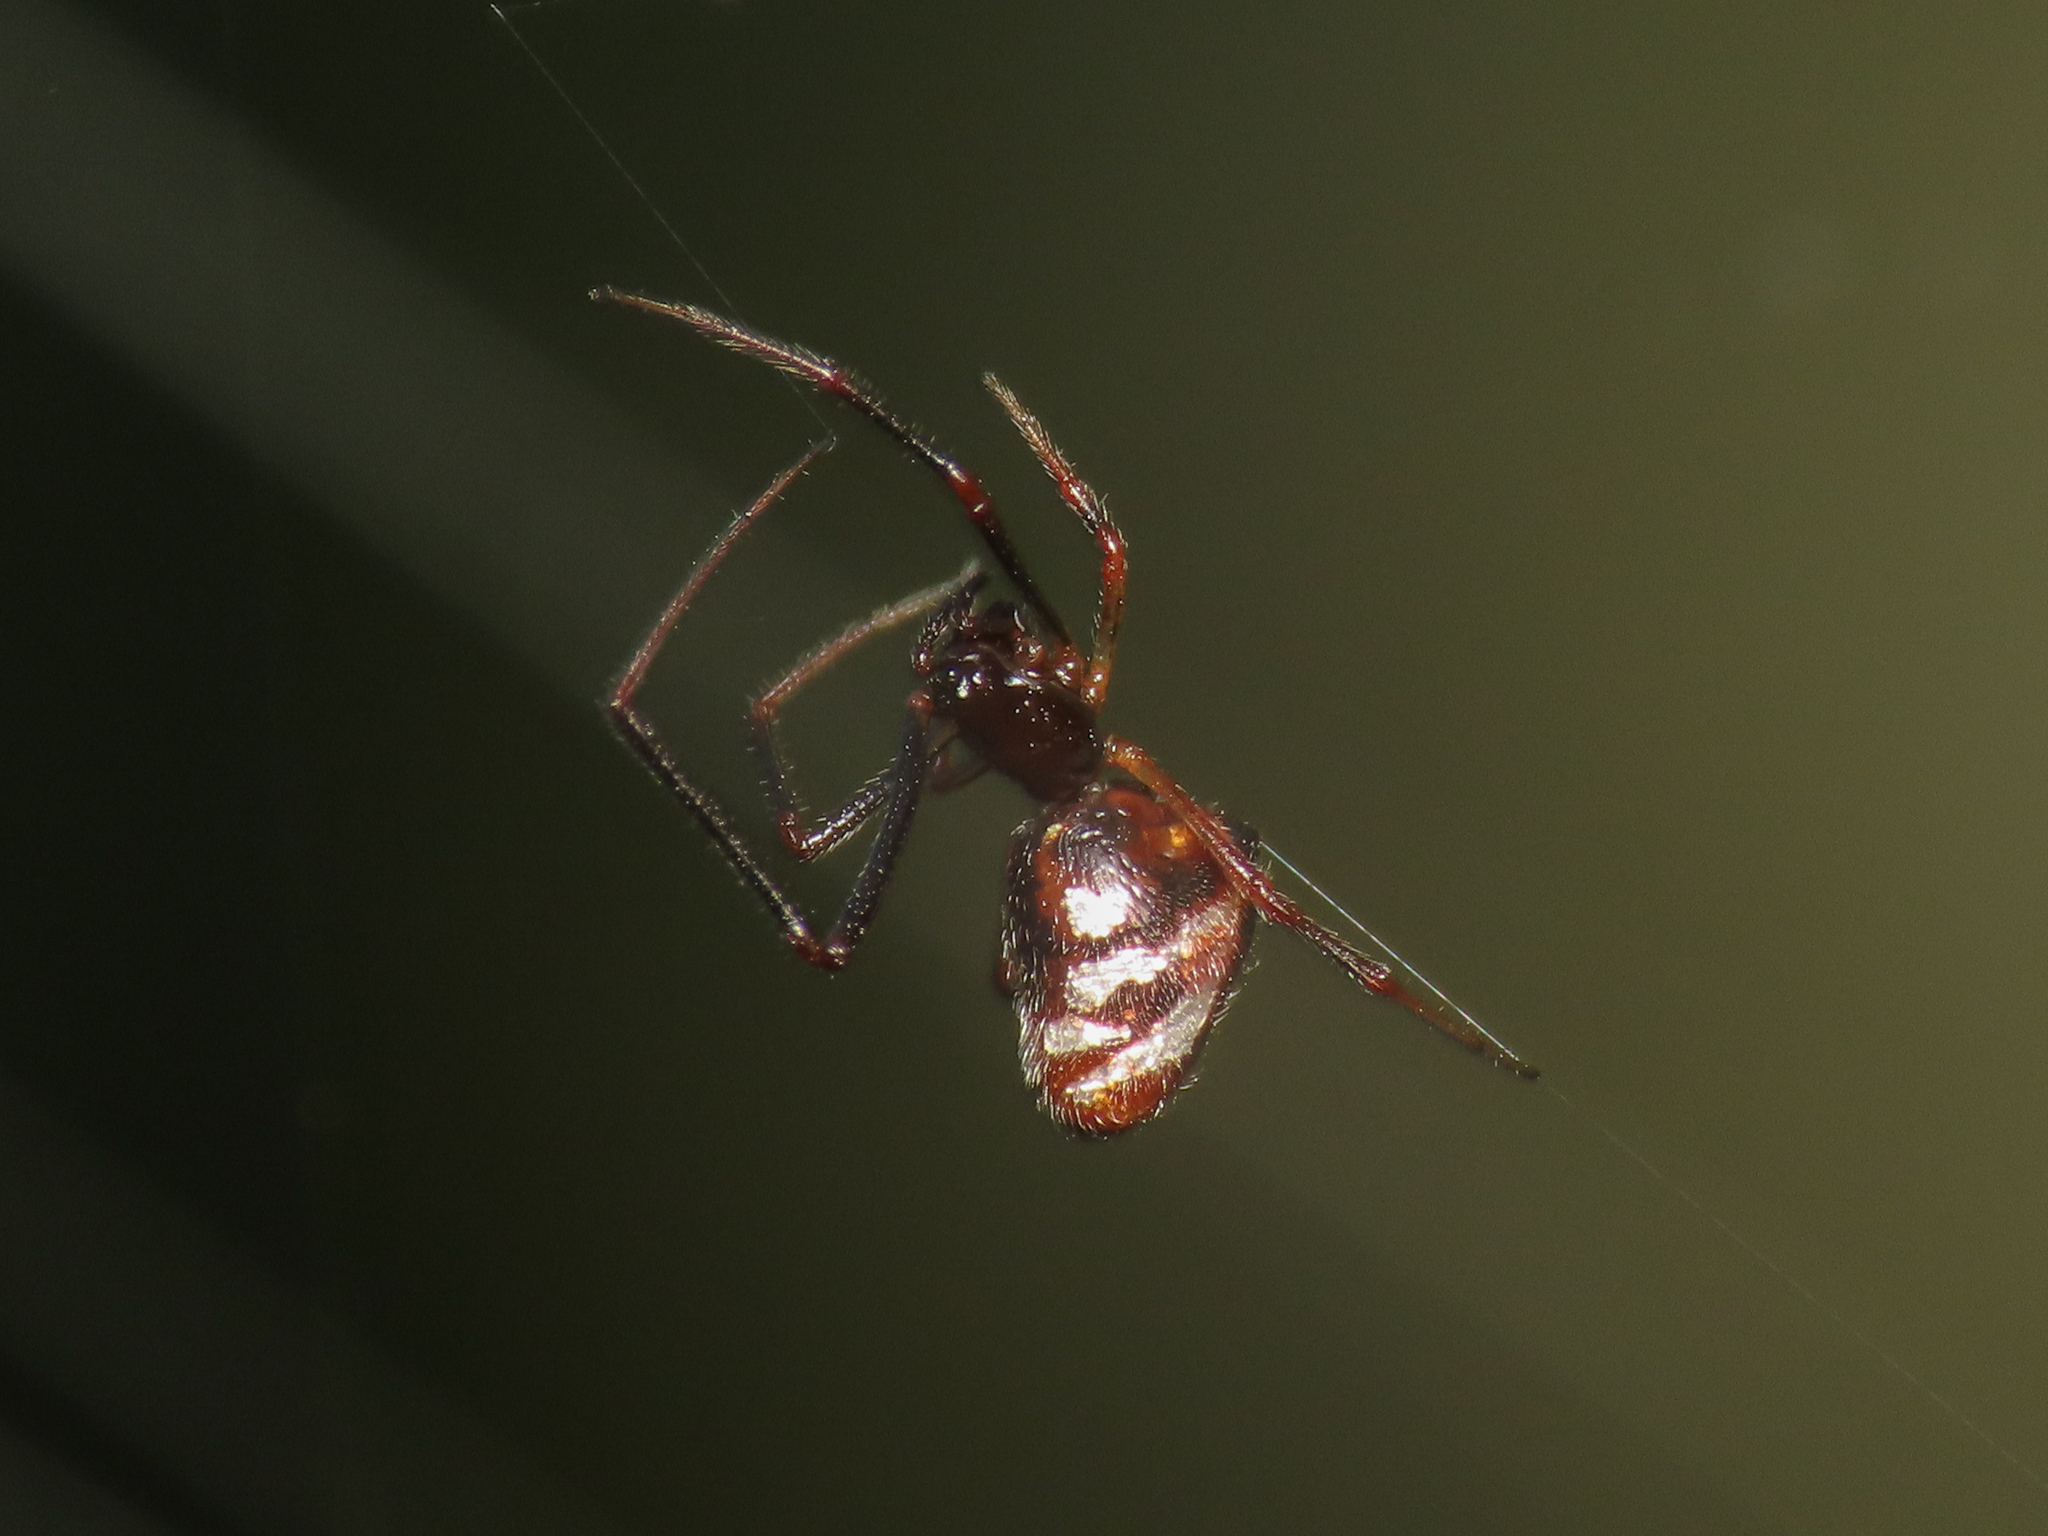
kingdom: Animalia
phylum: Arthropoda
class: Arachnida
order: Araneae
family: Theridiidae
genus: Argyrodes
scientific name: Argyrodes argyrodes
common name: Dewdrop spider
